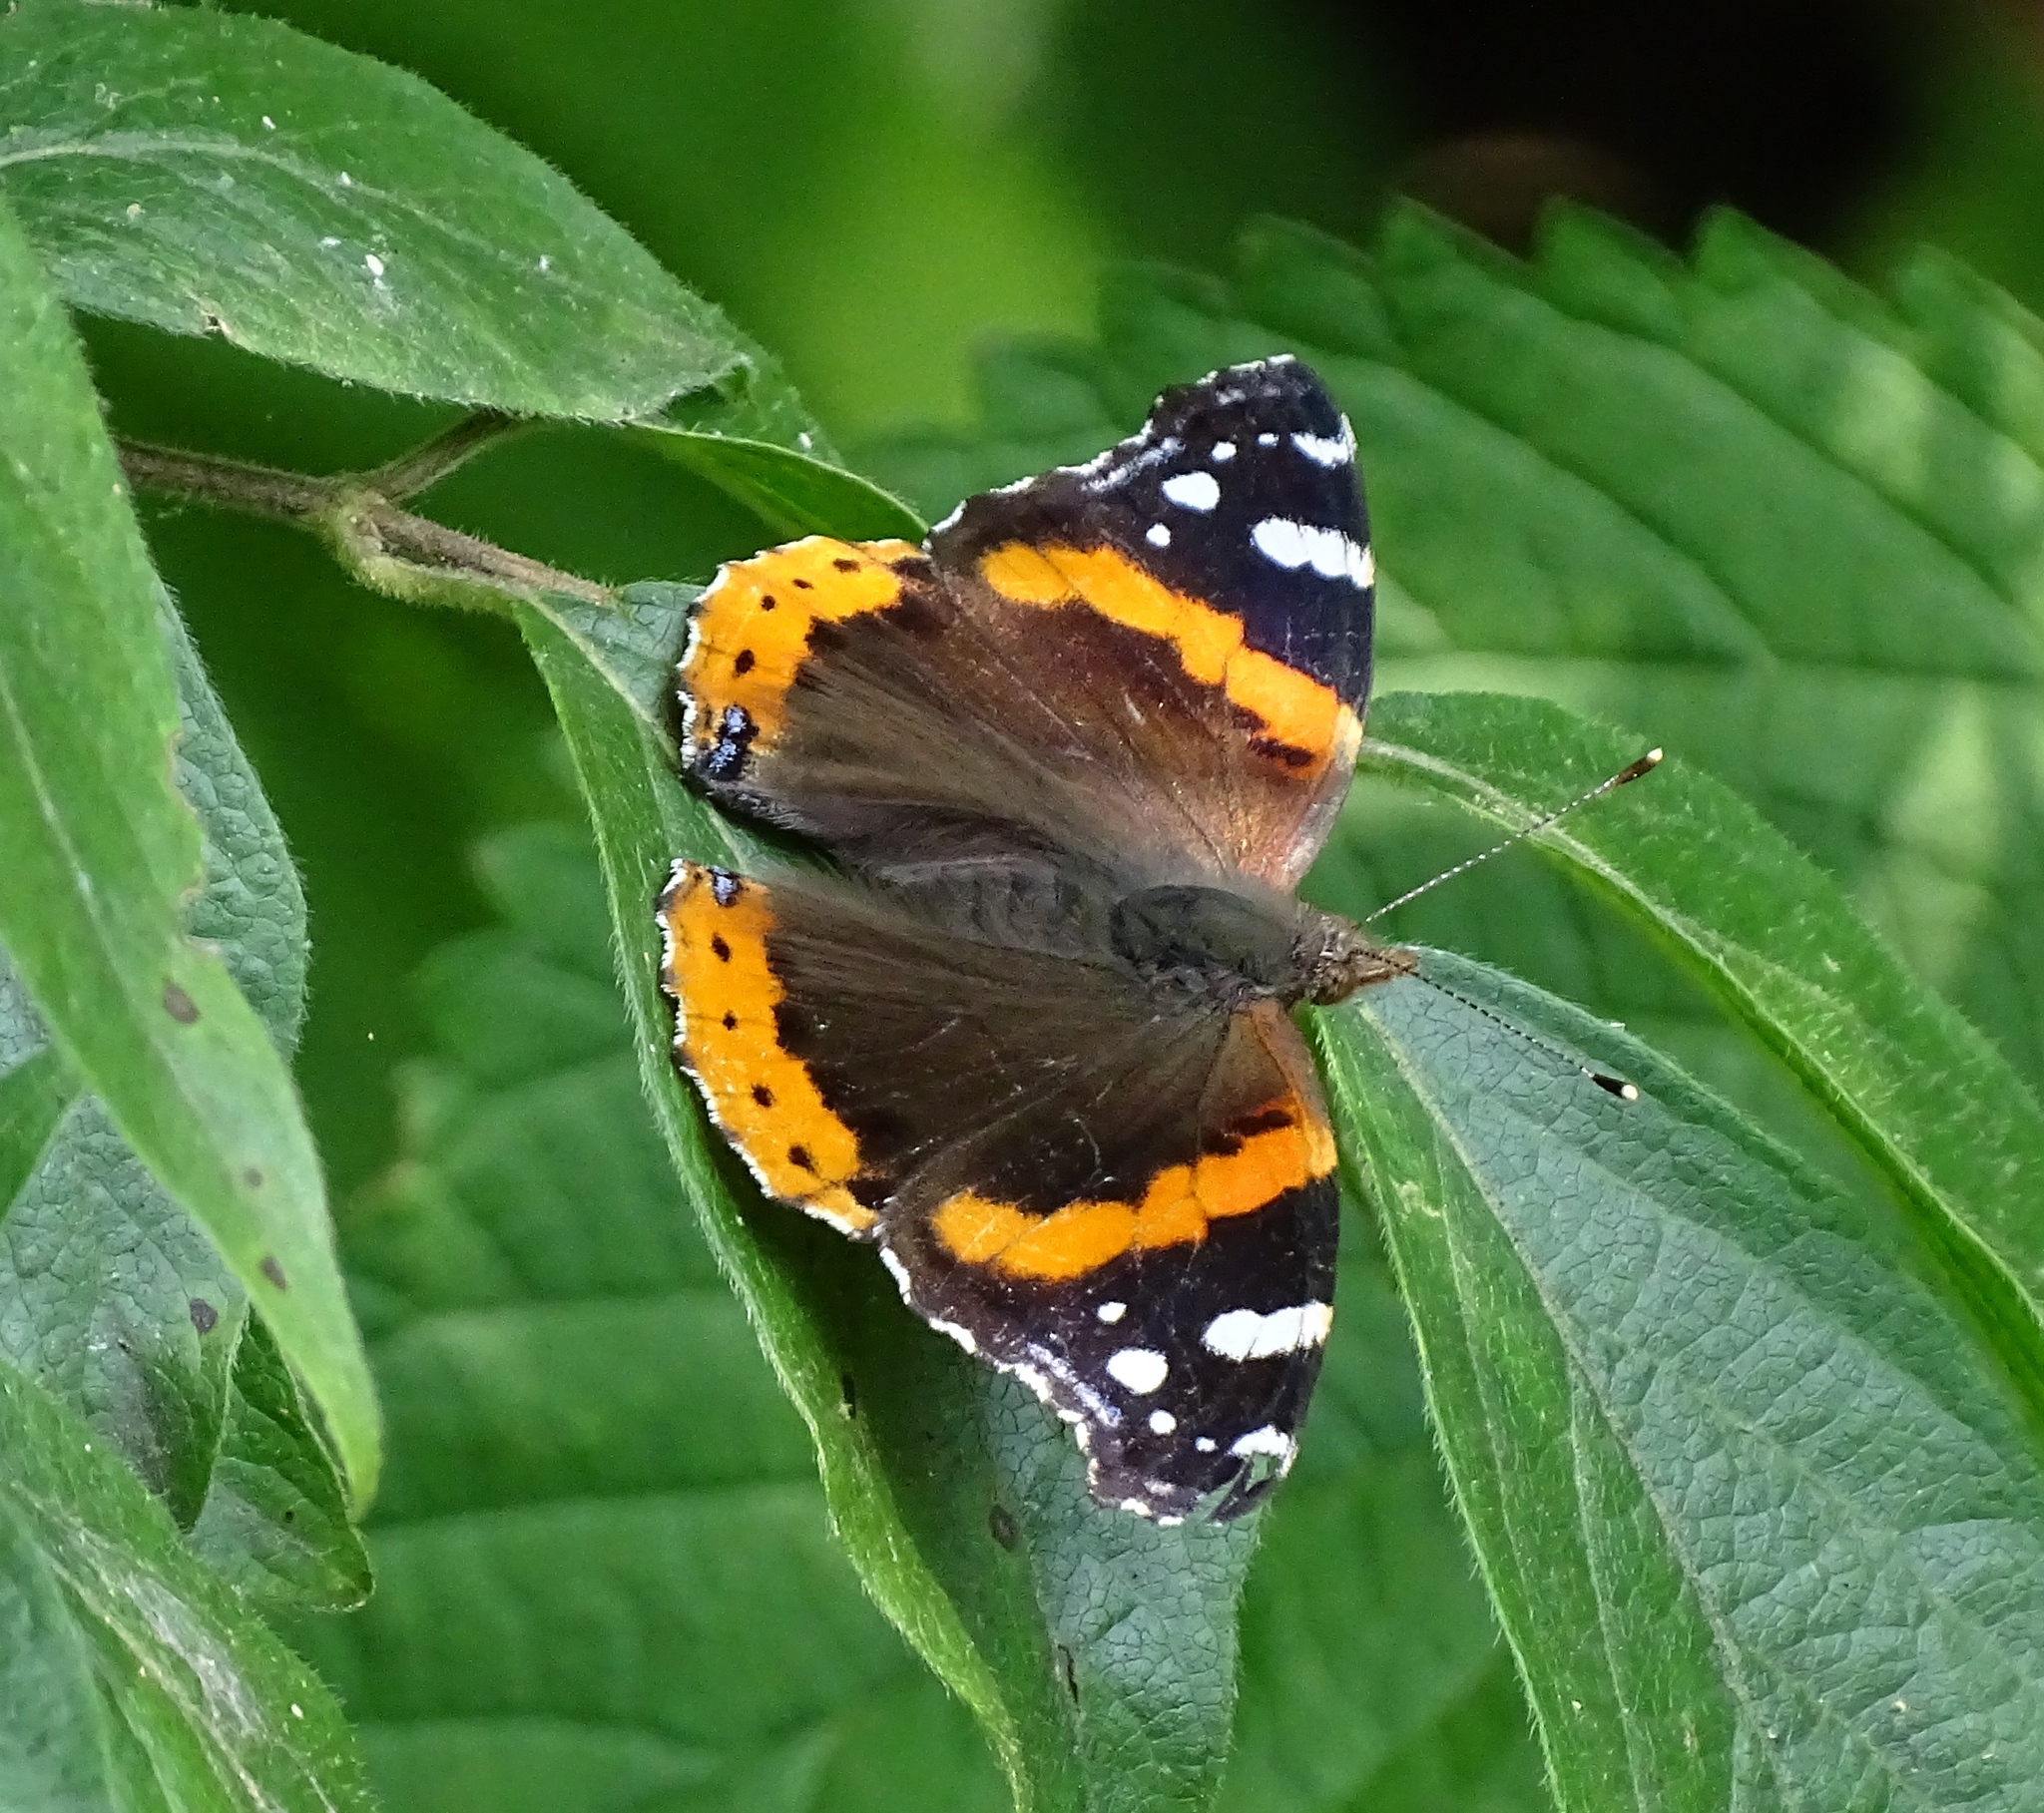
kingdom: Animalia
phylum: Arthropoda
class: Insecta
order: Lepidoptera
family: Nymphalidae
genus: Vanessa
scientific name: Vanessa atalanta
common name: Red admiral
